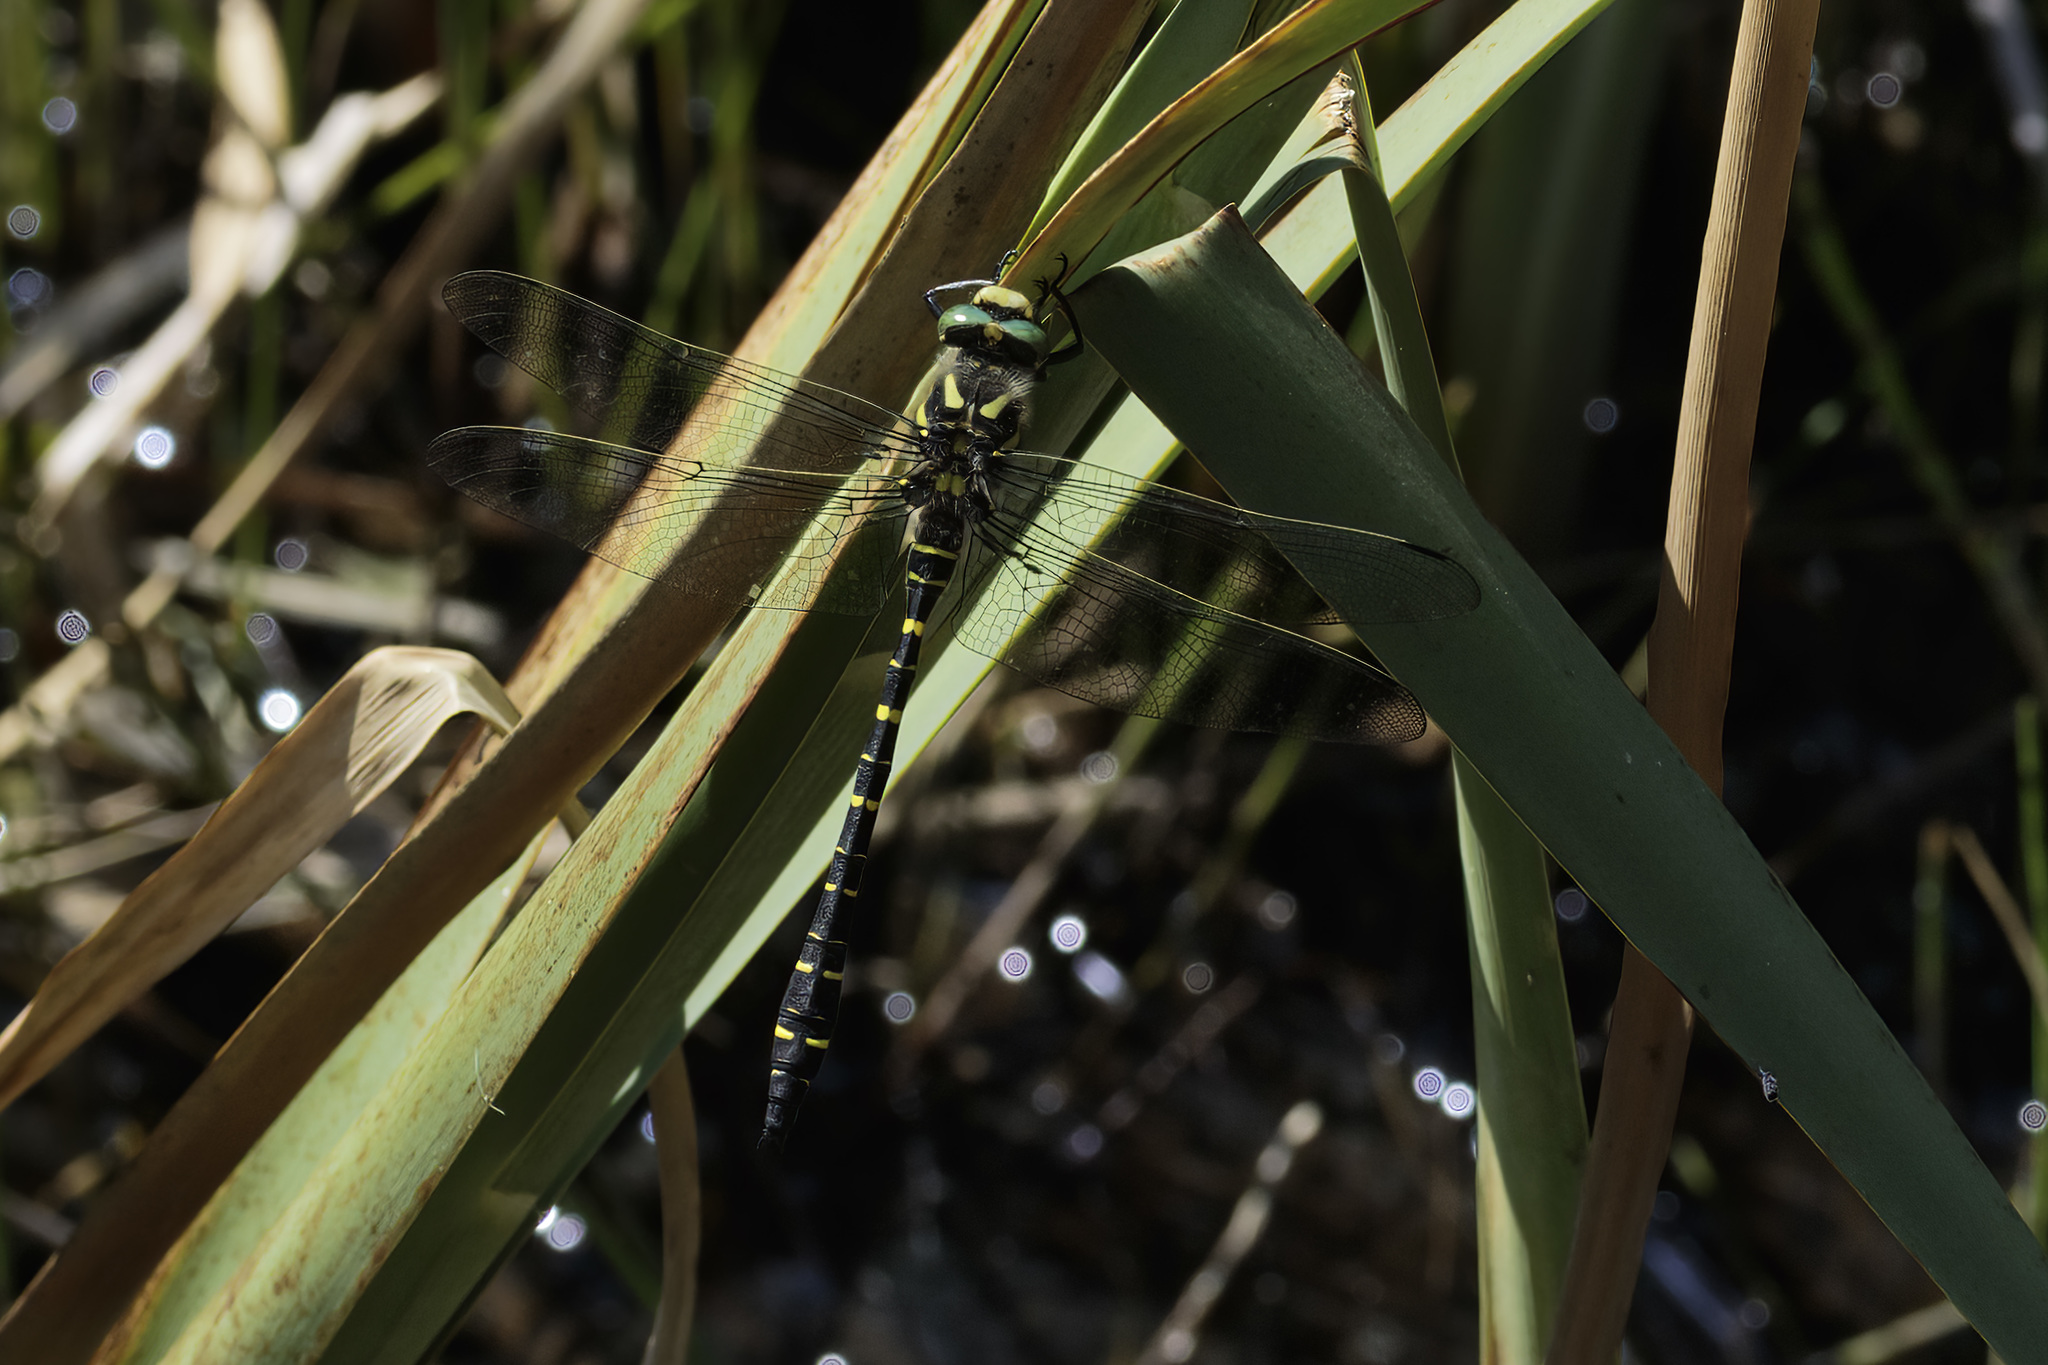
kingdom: Animalia
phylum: Arthropoda
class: Insecta
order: Odonata
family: Cordulegastridae
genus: Cordulegaster
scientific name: Cordulegaster boltonii
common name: Golden-ringed dragonfly
